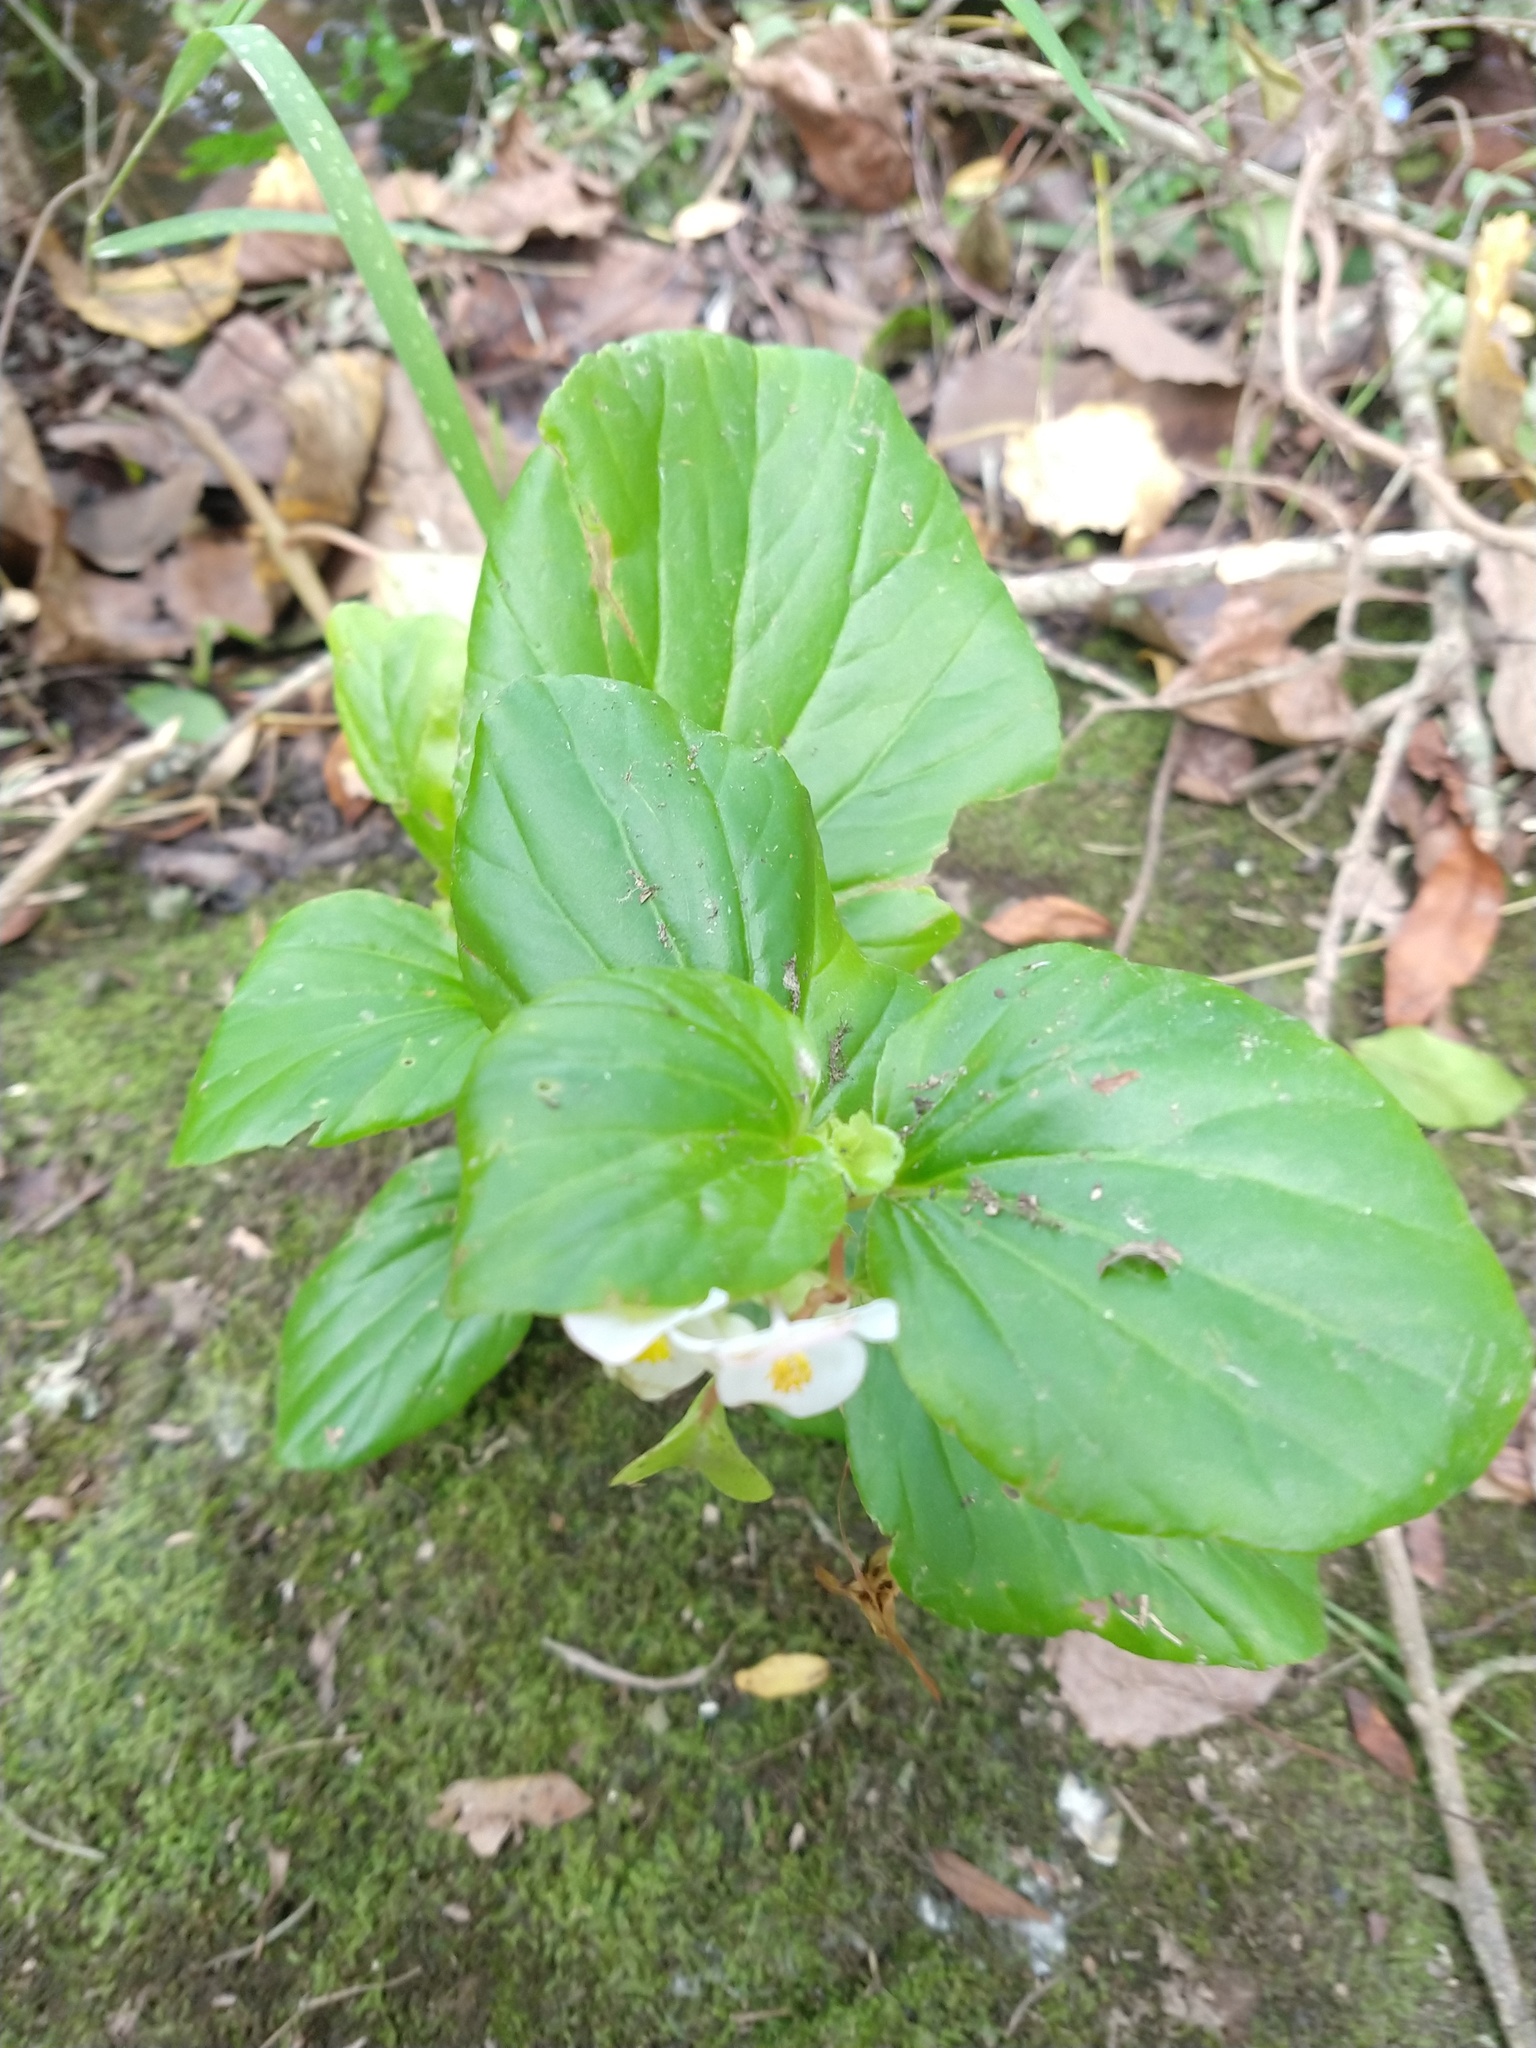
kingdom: Plantae
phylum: Tracheophyta
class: Magnoliopsida
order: Cucurbitales
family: Begoniaceae
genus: Begonia
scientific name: Begonia cucullata
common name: Clubbed begonia
